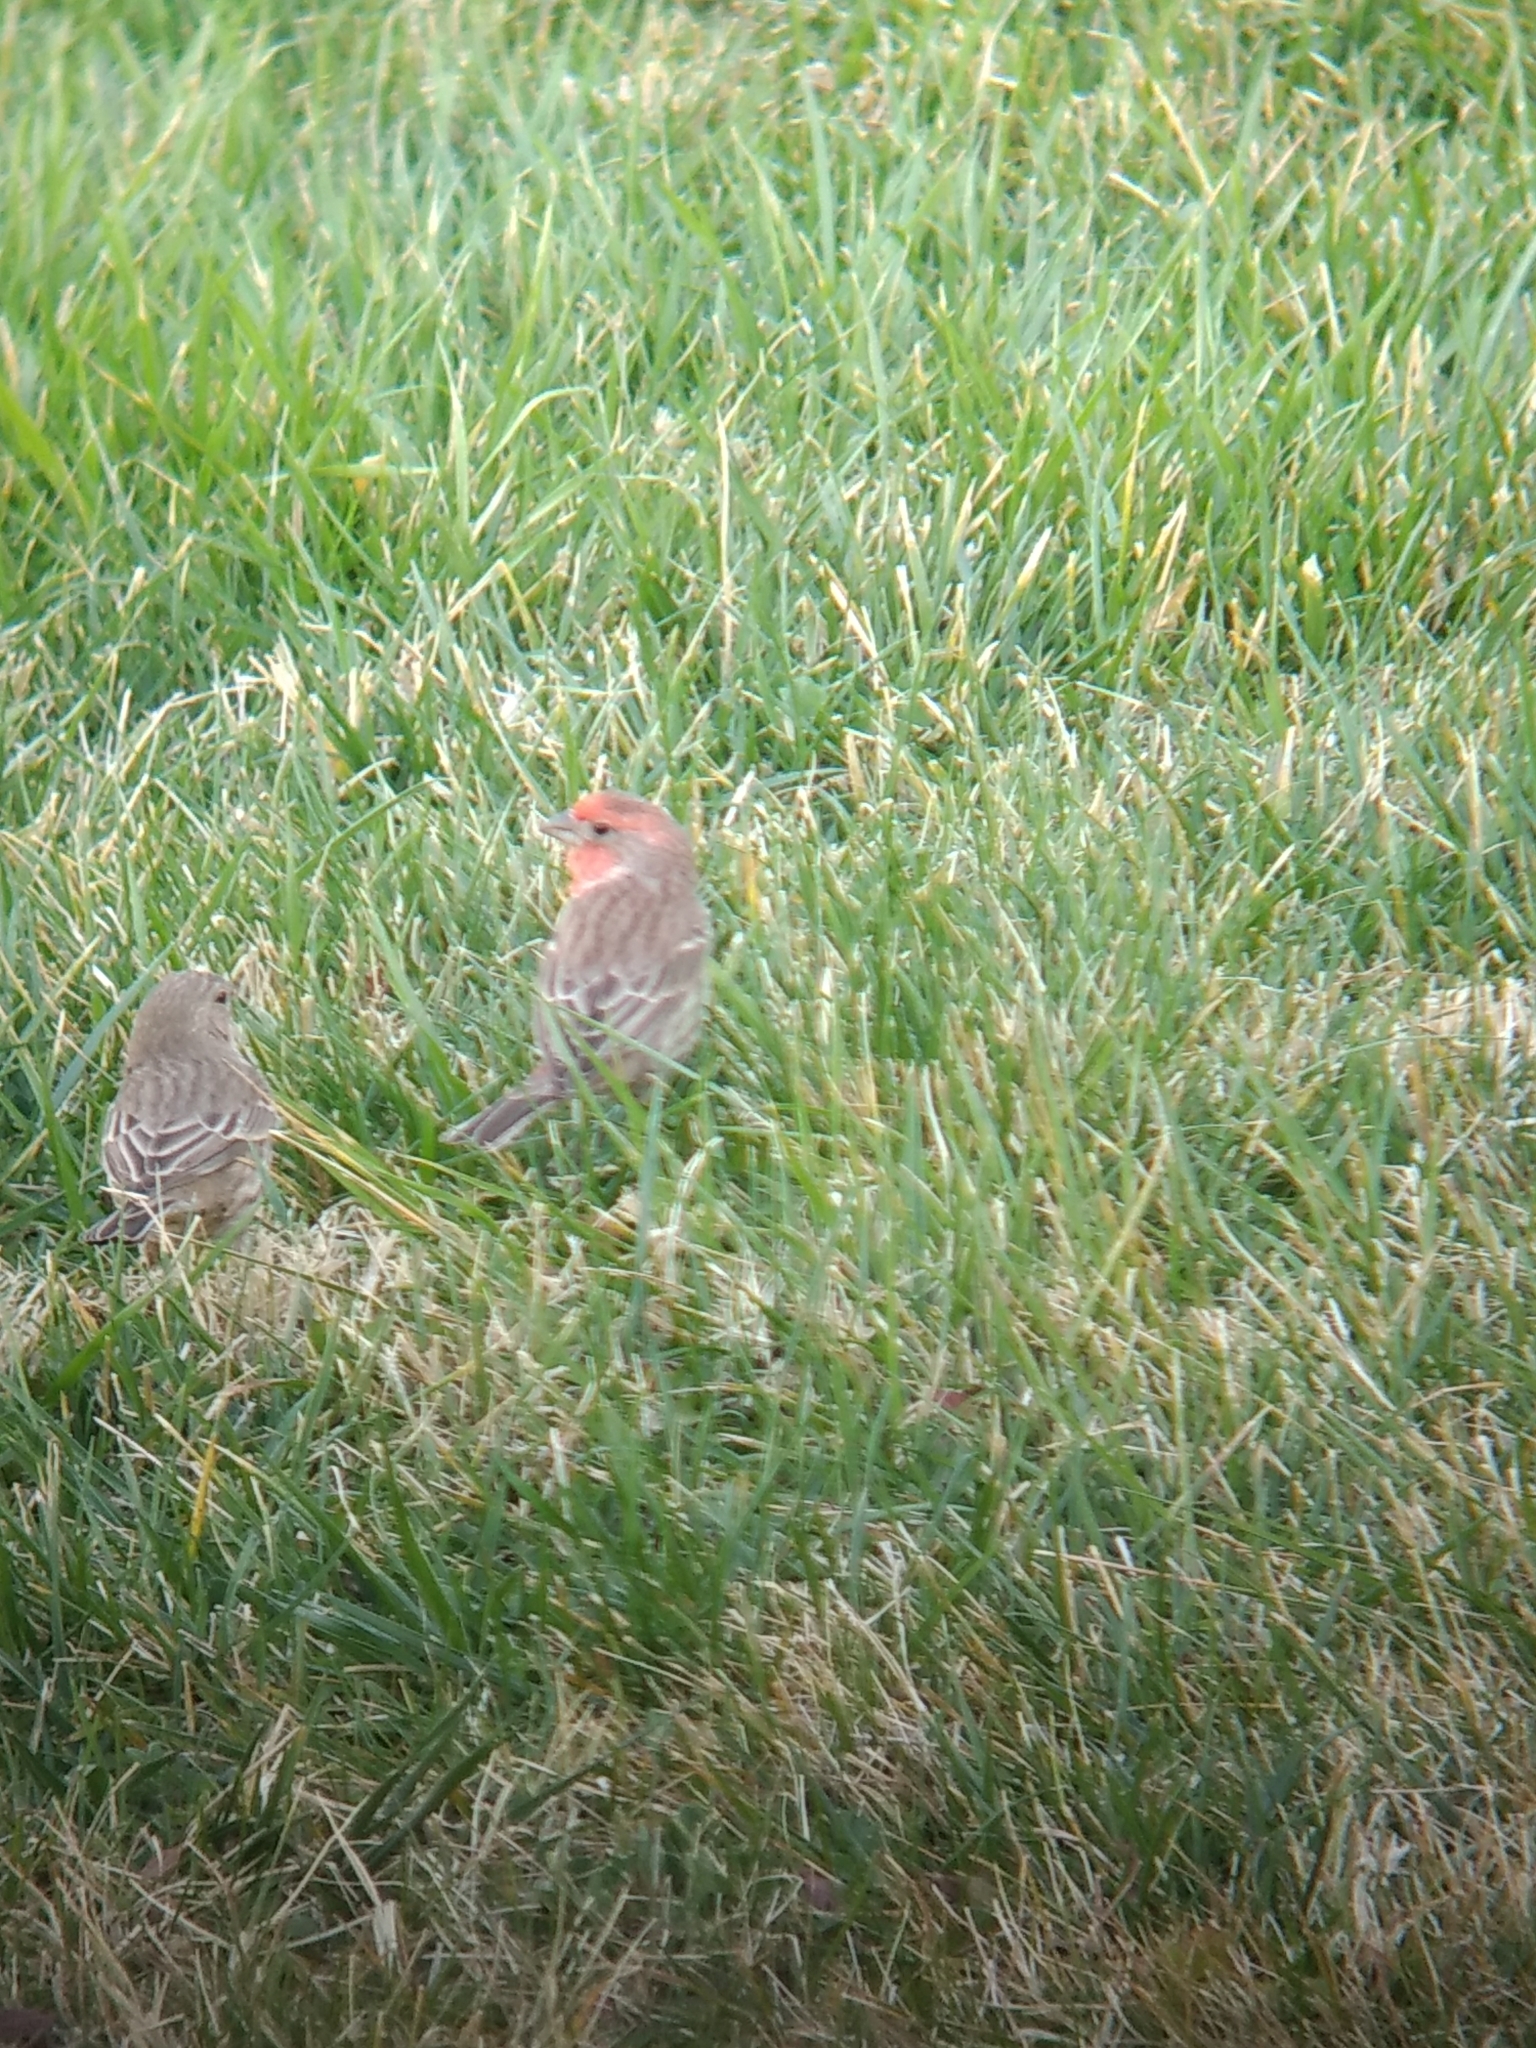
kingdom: Animalia
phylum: Chordata
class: Aves
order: Passeriformes
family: Fringillidae
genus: Haemorhous
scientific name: Haemorhous mexicanus
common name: House finch
